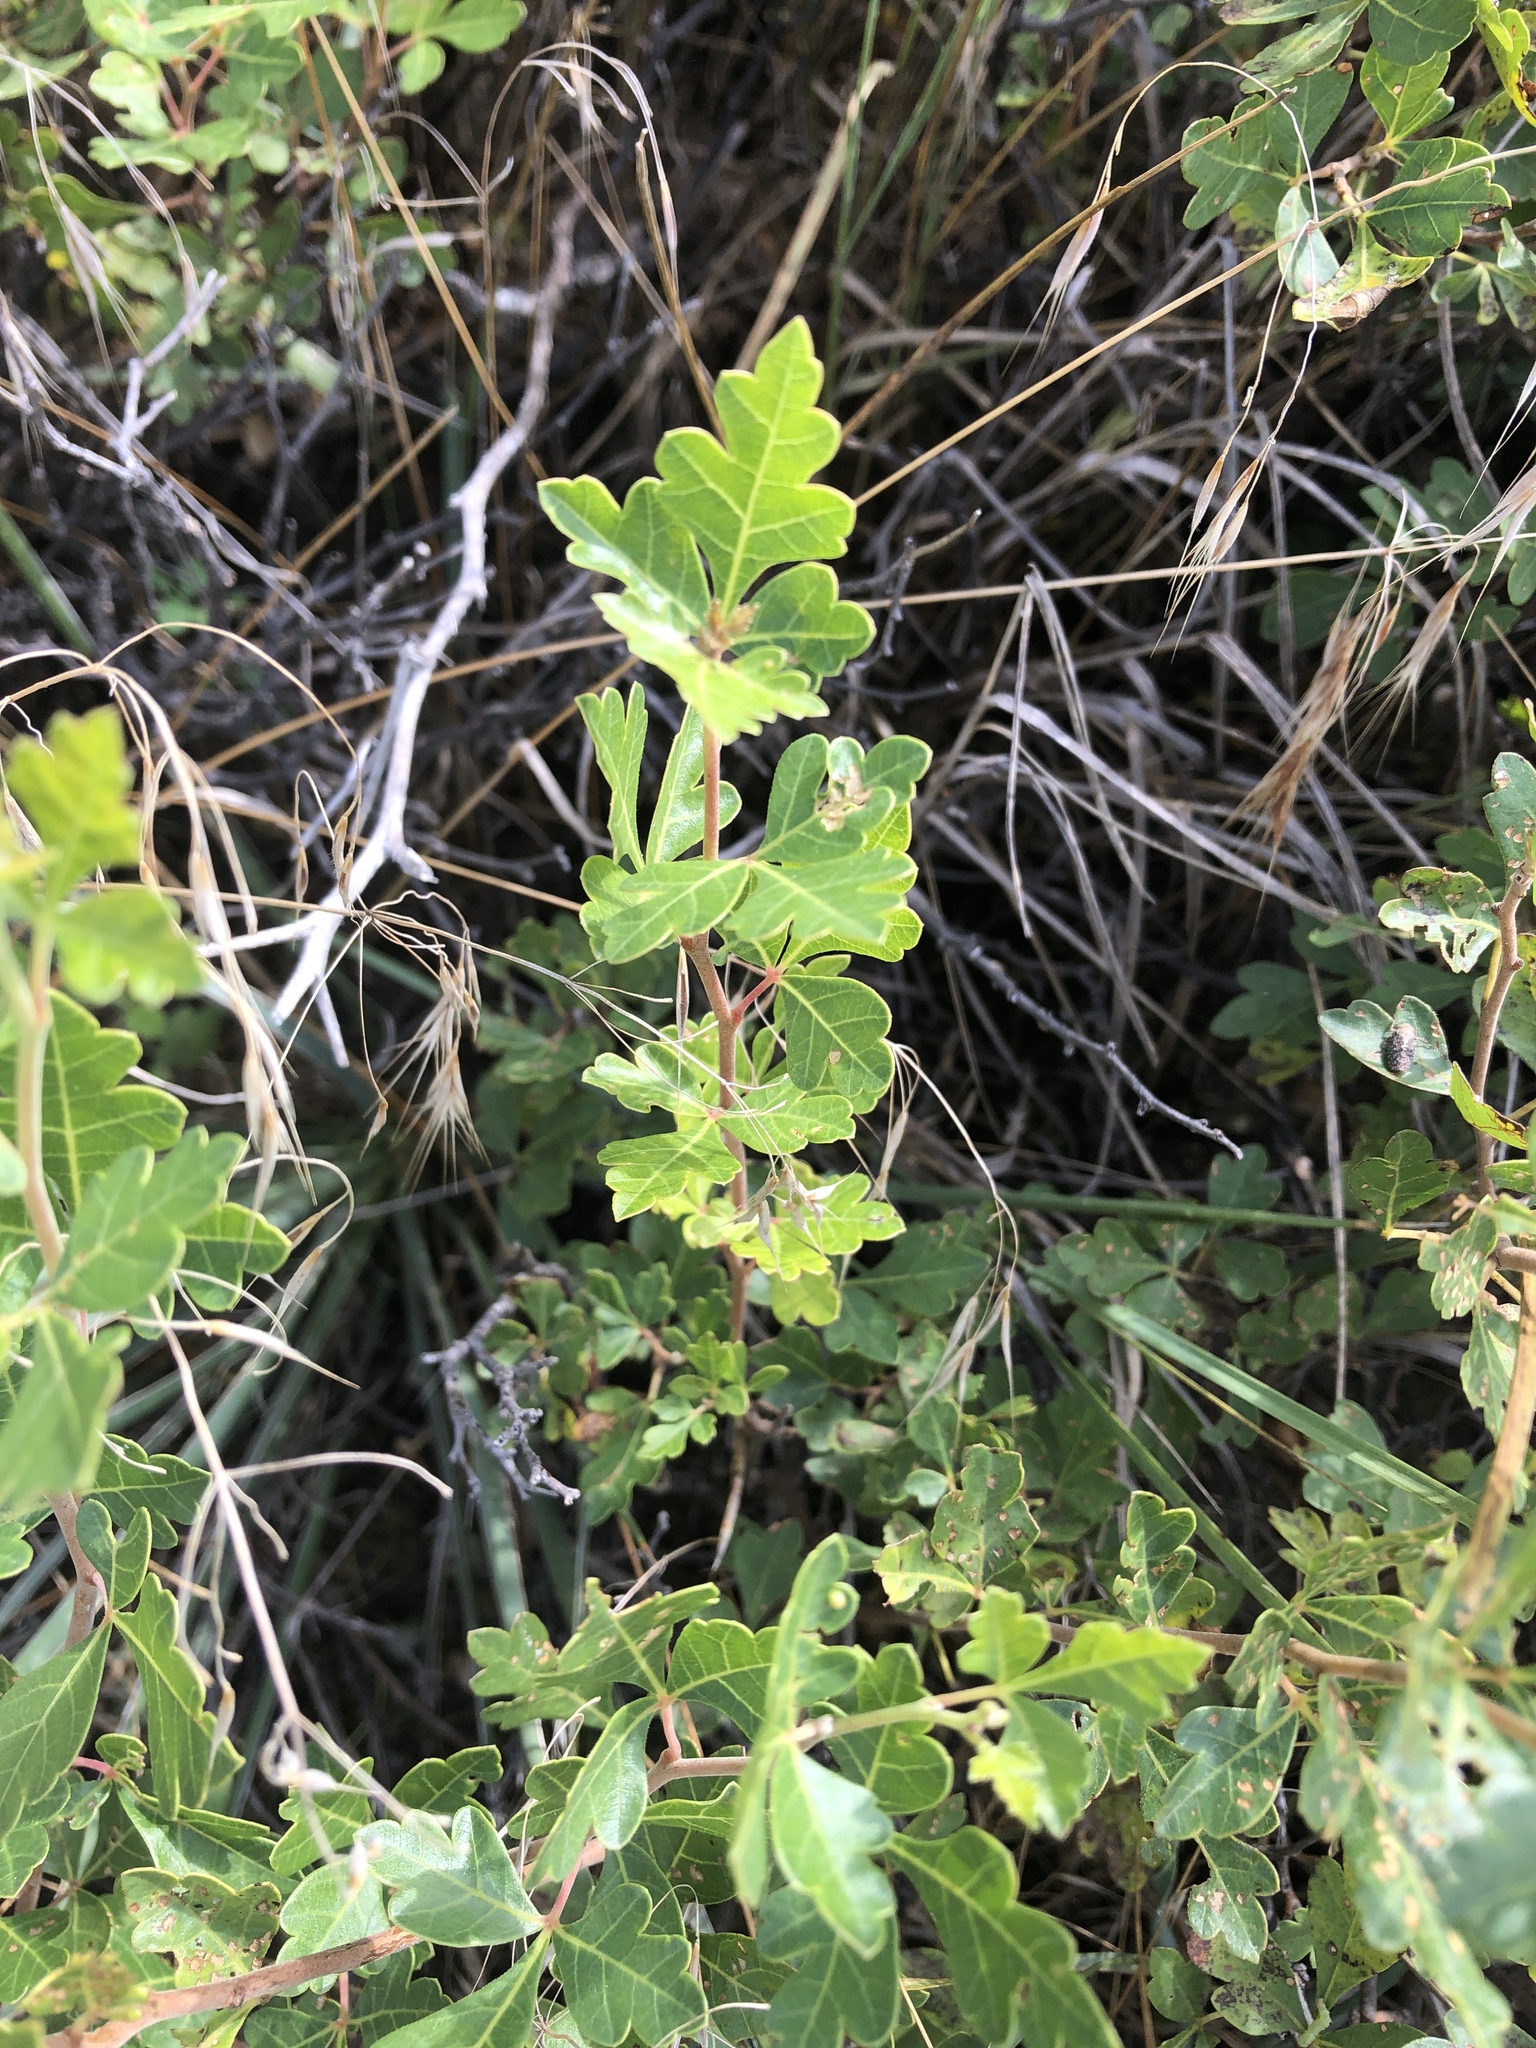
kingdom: Plantae
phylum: Tracheophyta
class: Magnoliopsida
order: Sapindales
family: Anacardiaceae
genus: Rhus
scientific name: Rhus aromatica
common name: Aromatic sumac
